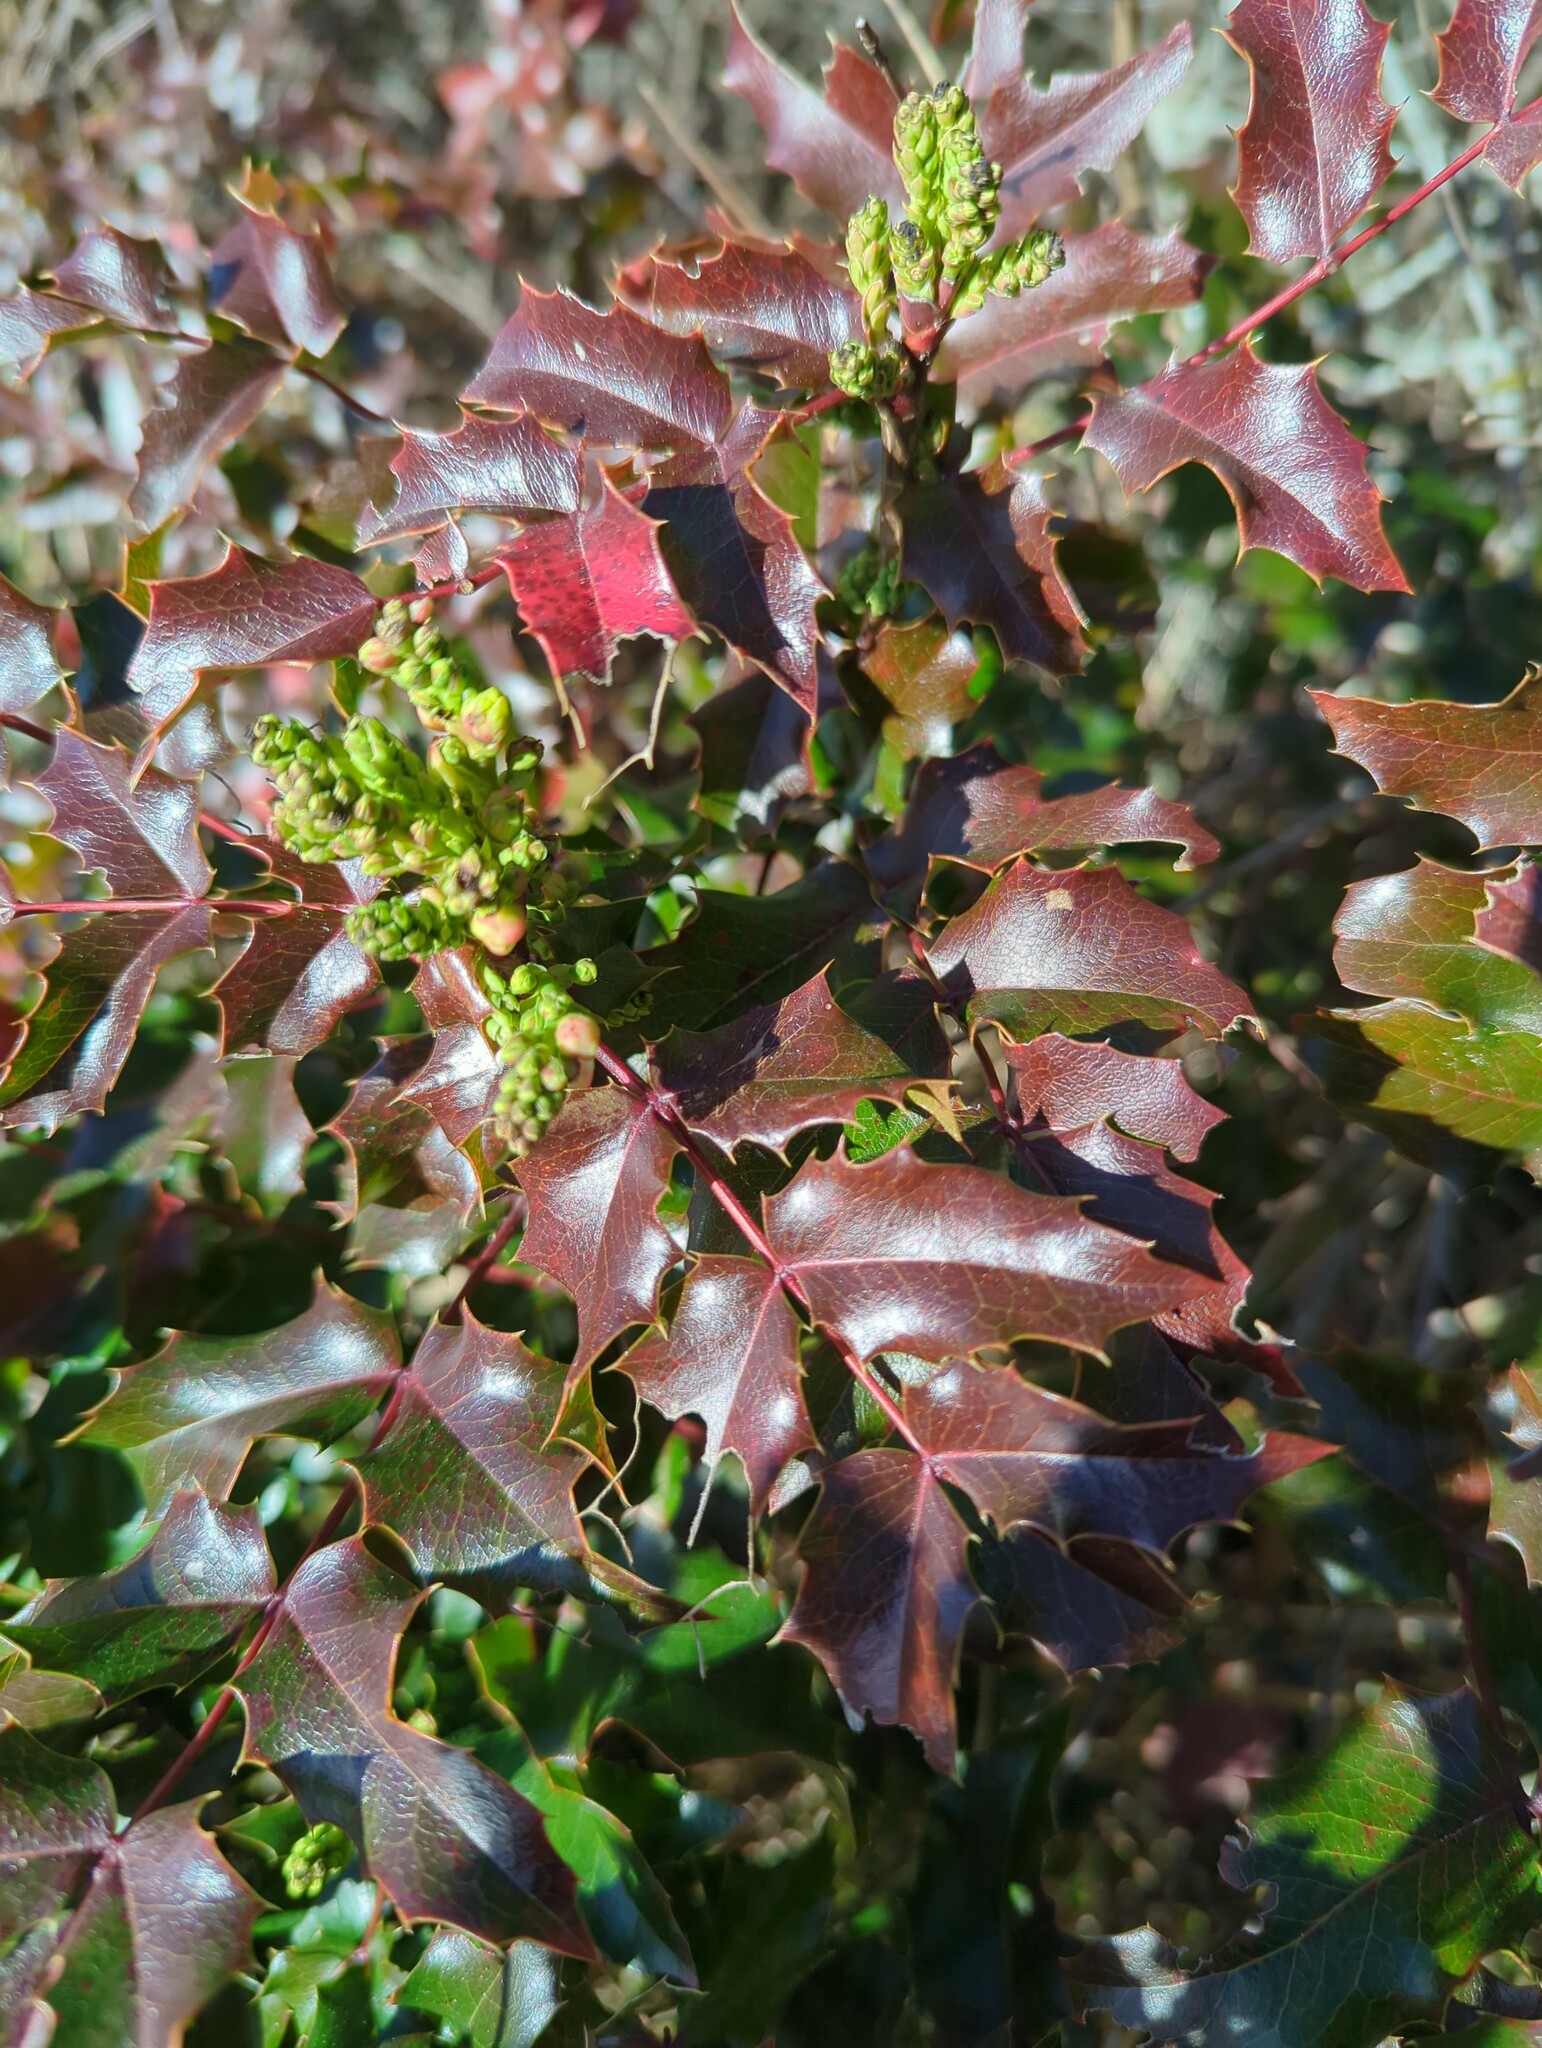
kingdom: Plantae
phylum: Tracheophyta
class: Magnoliopsida
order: Ranunculales
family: Berberidaceae
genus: Mahonia
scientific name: Mahonia aquifolium
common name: Oregon-grape
